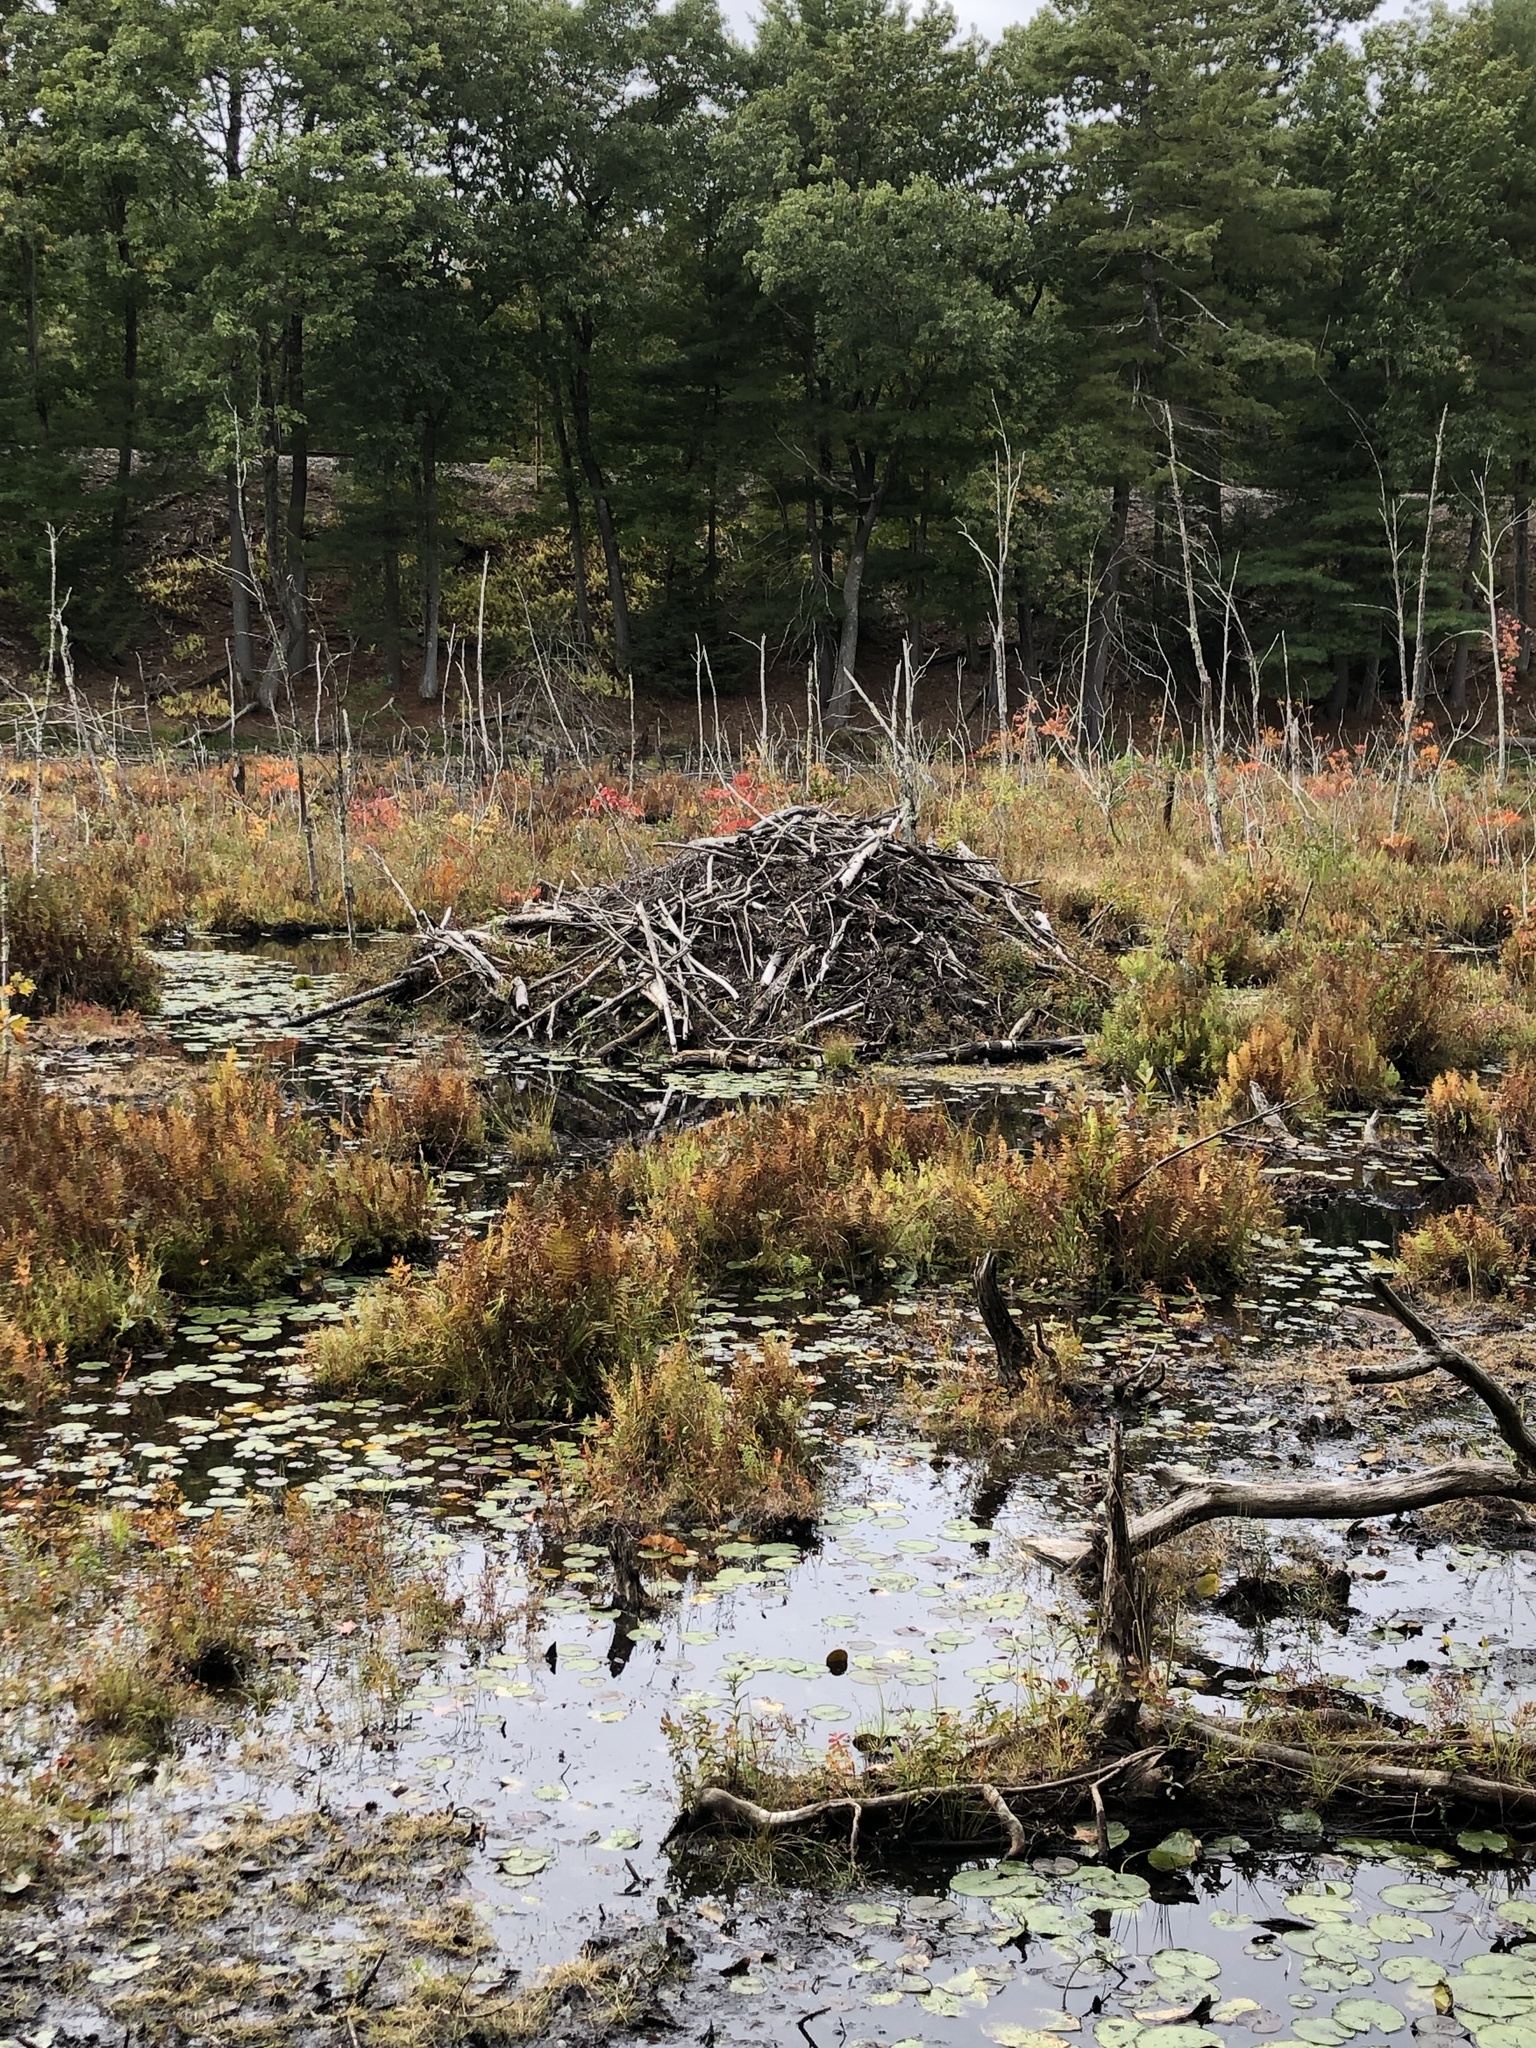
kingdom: Animalia
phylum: Chordata
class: Mammalia
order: Rodentia
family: Castoridae
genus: Castor
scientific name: Castor canadensis
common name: American beaver
